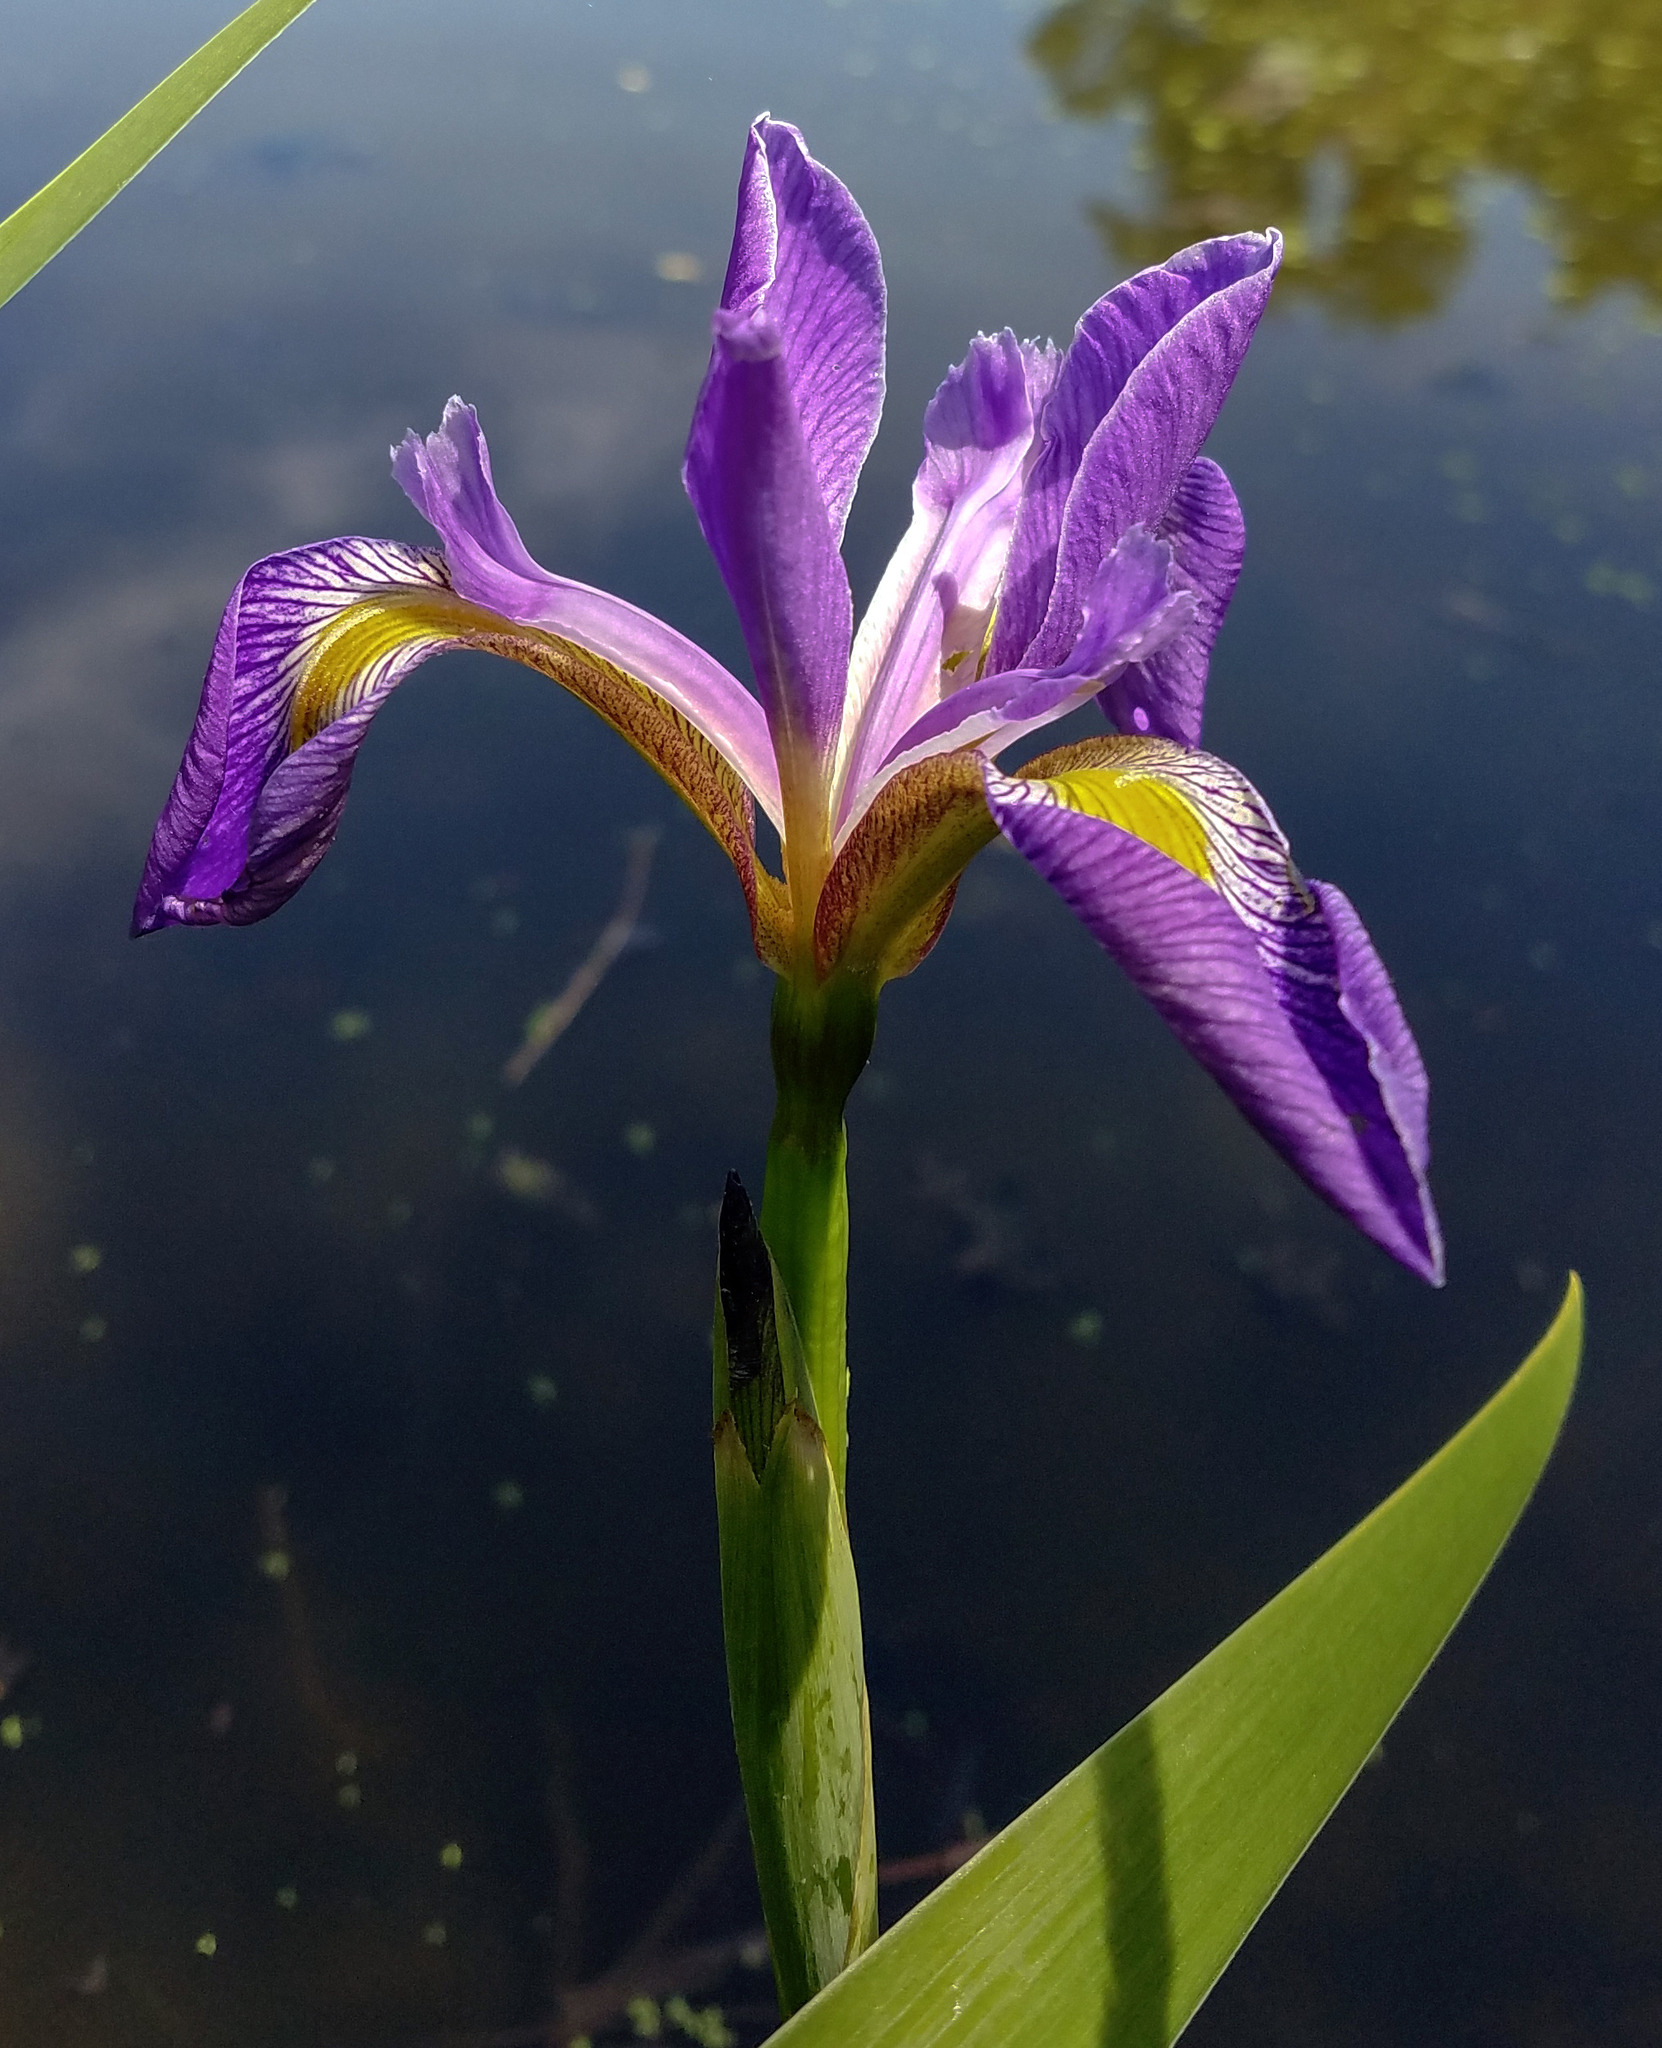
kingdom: Plantae
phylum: Tracheophyta
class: Liliopsida
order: Asparagales
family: Iridaceae
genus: Iris
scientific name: Iris virginica
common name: Southern blue flag
